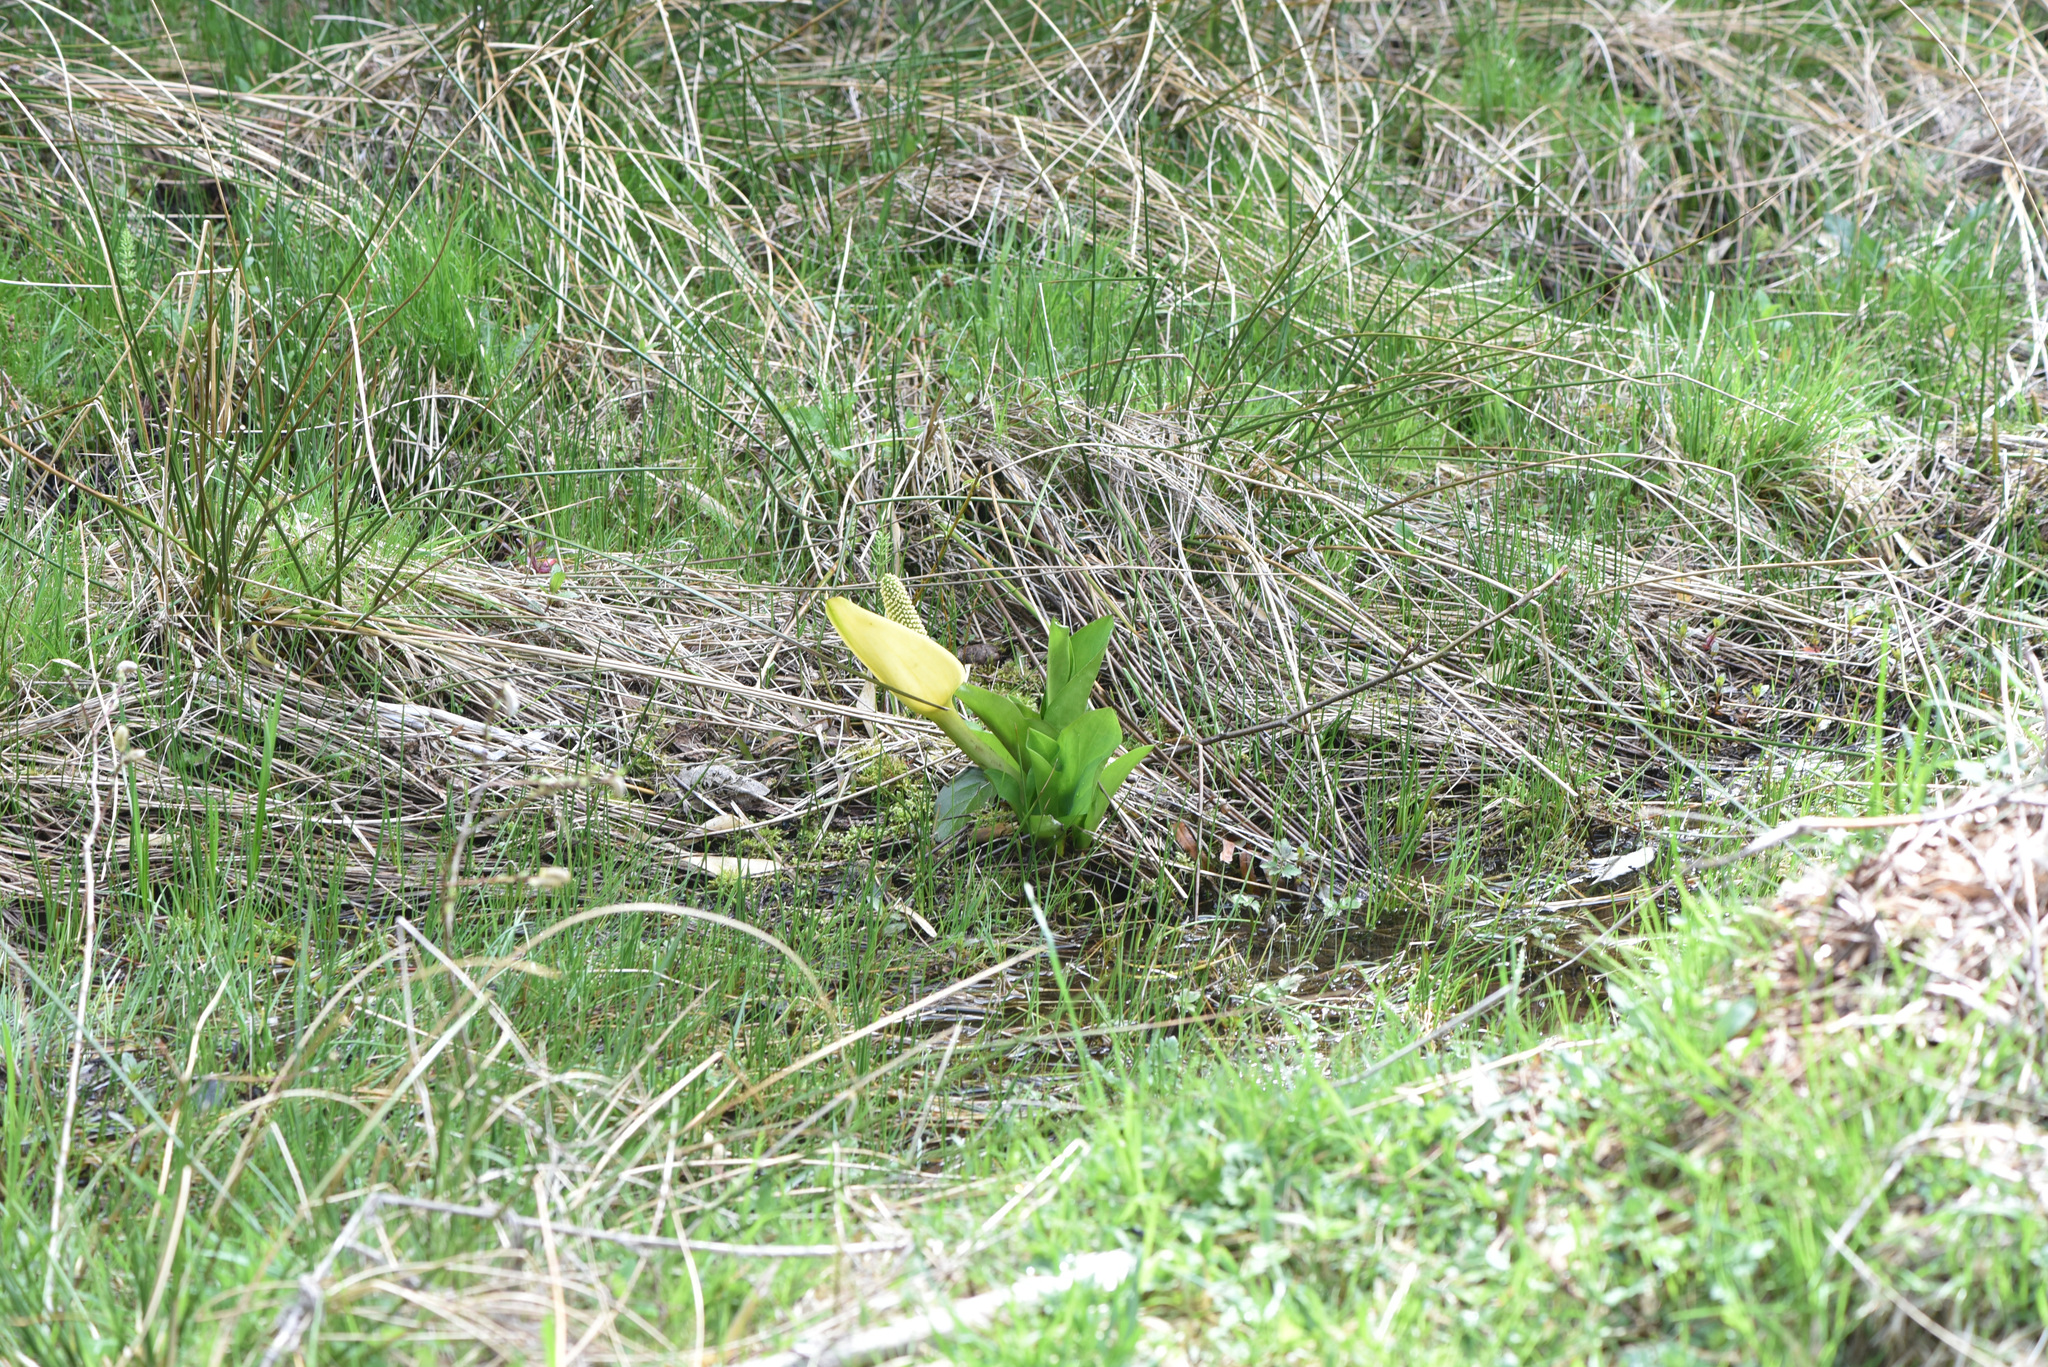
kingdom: Plantae
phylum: Tracheophyta
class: Liliopsida
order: Alismatales
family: Araceae
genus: Lysichiton
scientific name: Lysichiton americanus
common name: American skunk cabbage
